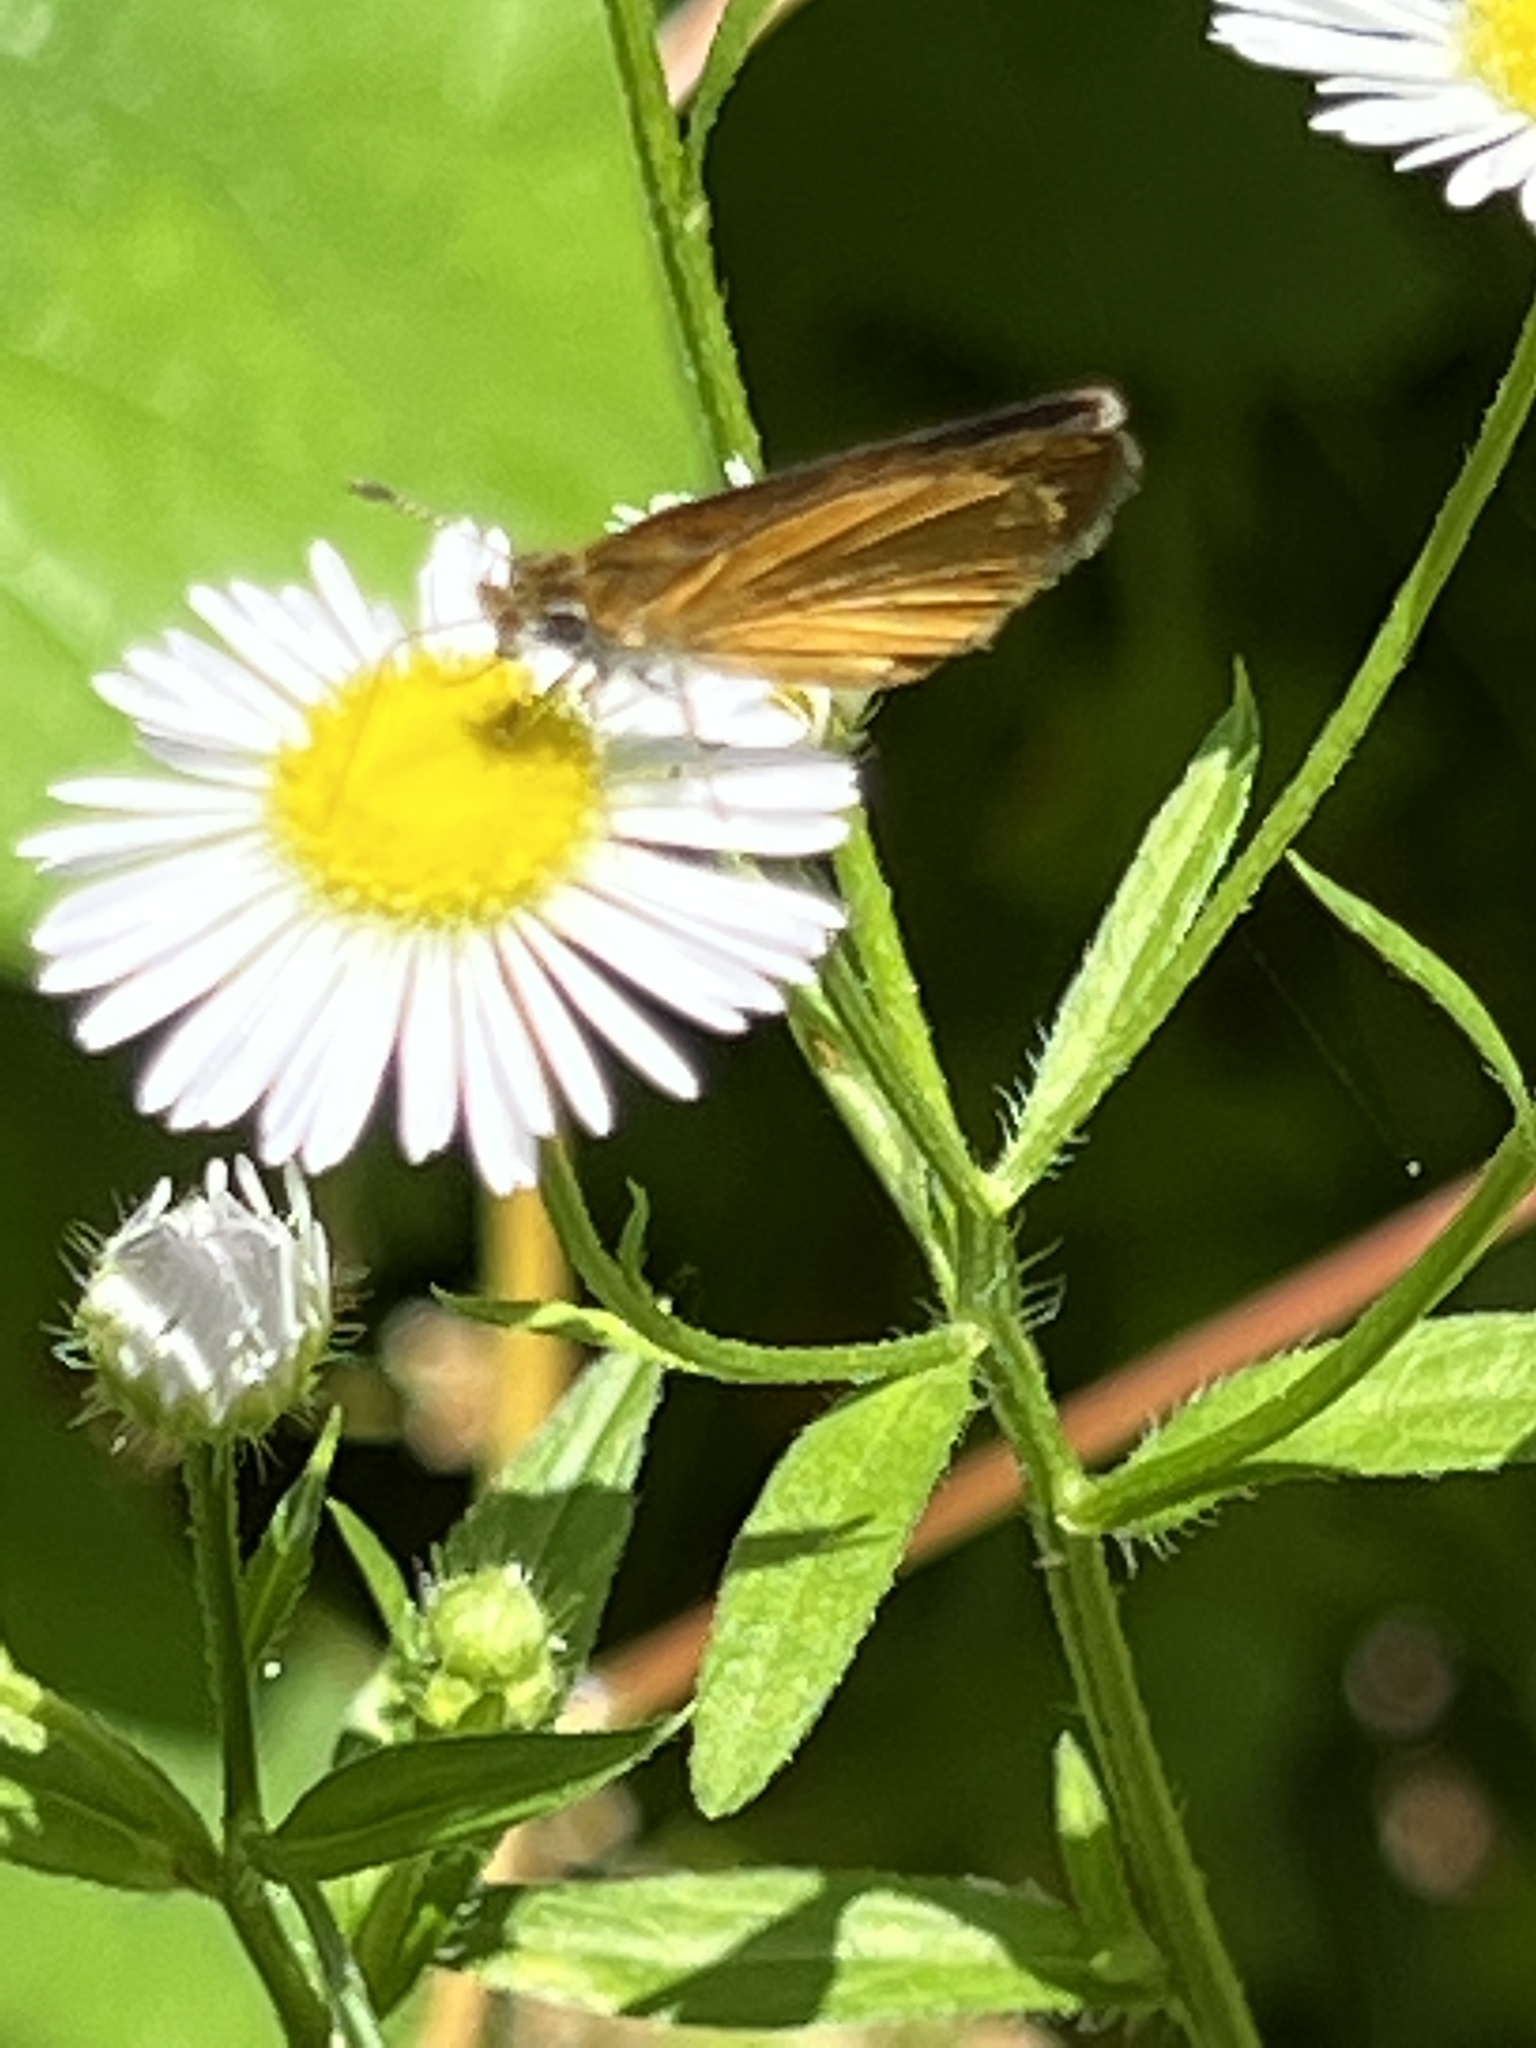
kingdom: Animalia
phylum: Arthropoda
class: Insecta
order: Lepidoptera
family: Hesperiidae
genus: Ancyloxypha
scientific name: Ancyloxypha numitor
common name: Least skipper
